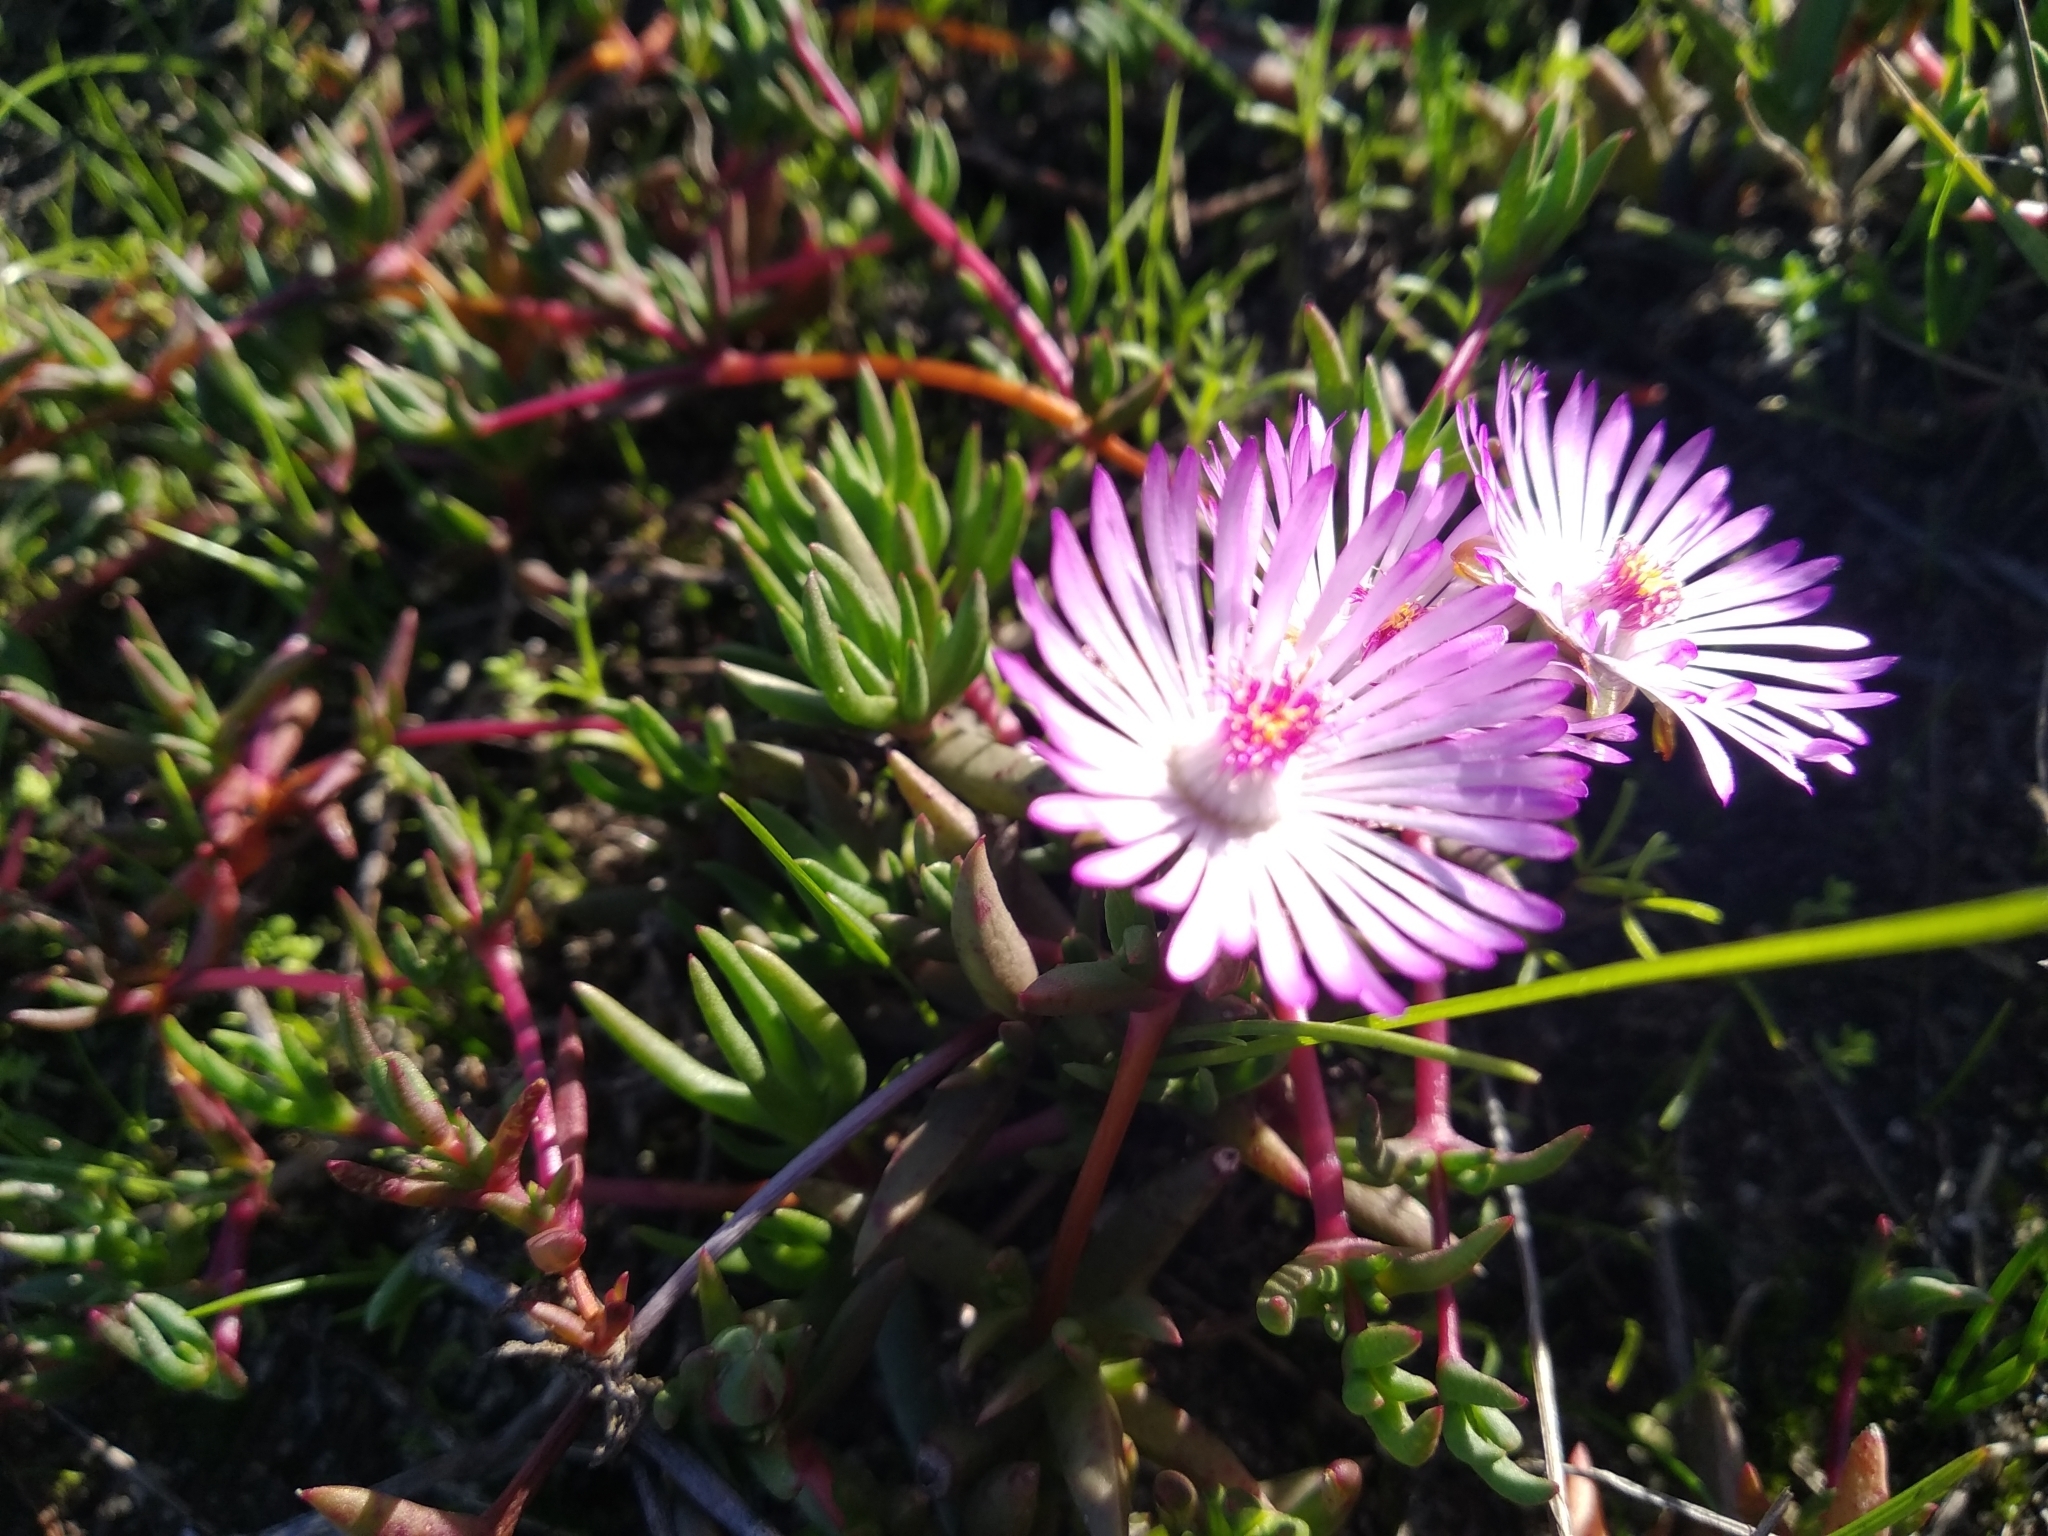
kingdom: Plantae
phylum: Tracheophyta
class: Magnoliopsida
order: Caryophyllales
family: Aizoaceae
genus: Lampranthus
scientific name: Lampranthus filicaulis
